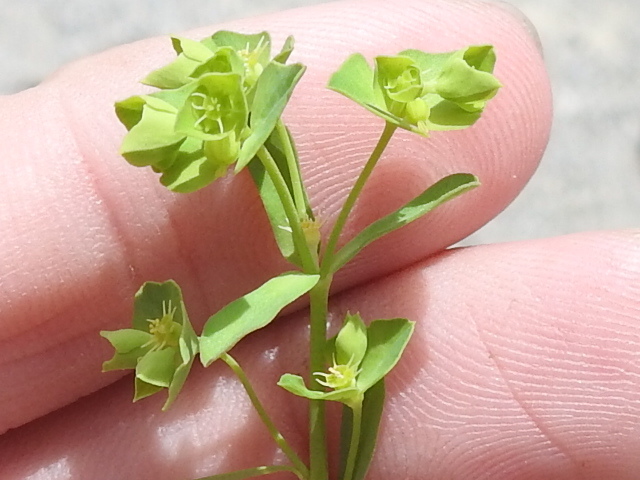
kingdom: Plantae
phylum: Tracheophyta
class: Magnoliopsida
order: Malpighiales
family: Euphorbiaceae
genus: Euphorbia
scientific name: Euphorbia tetrapora
